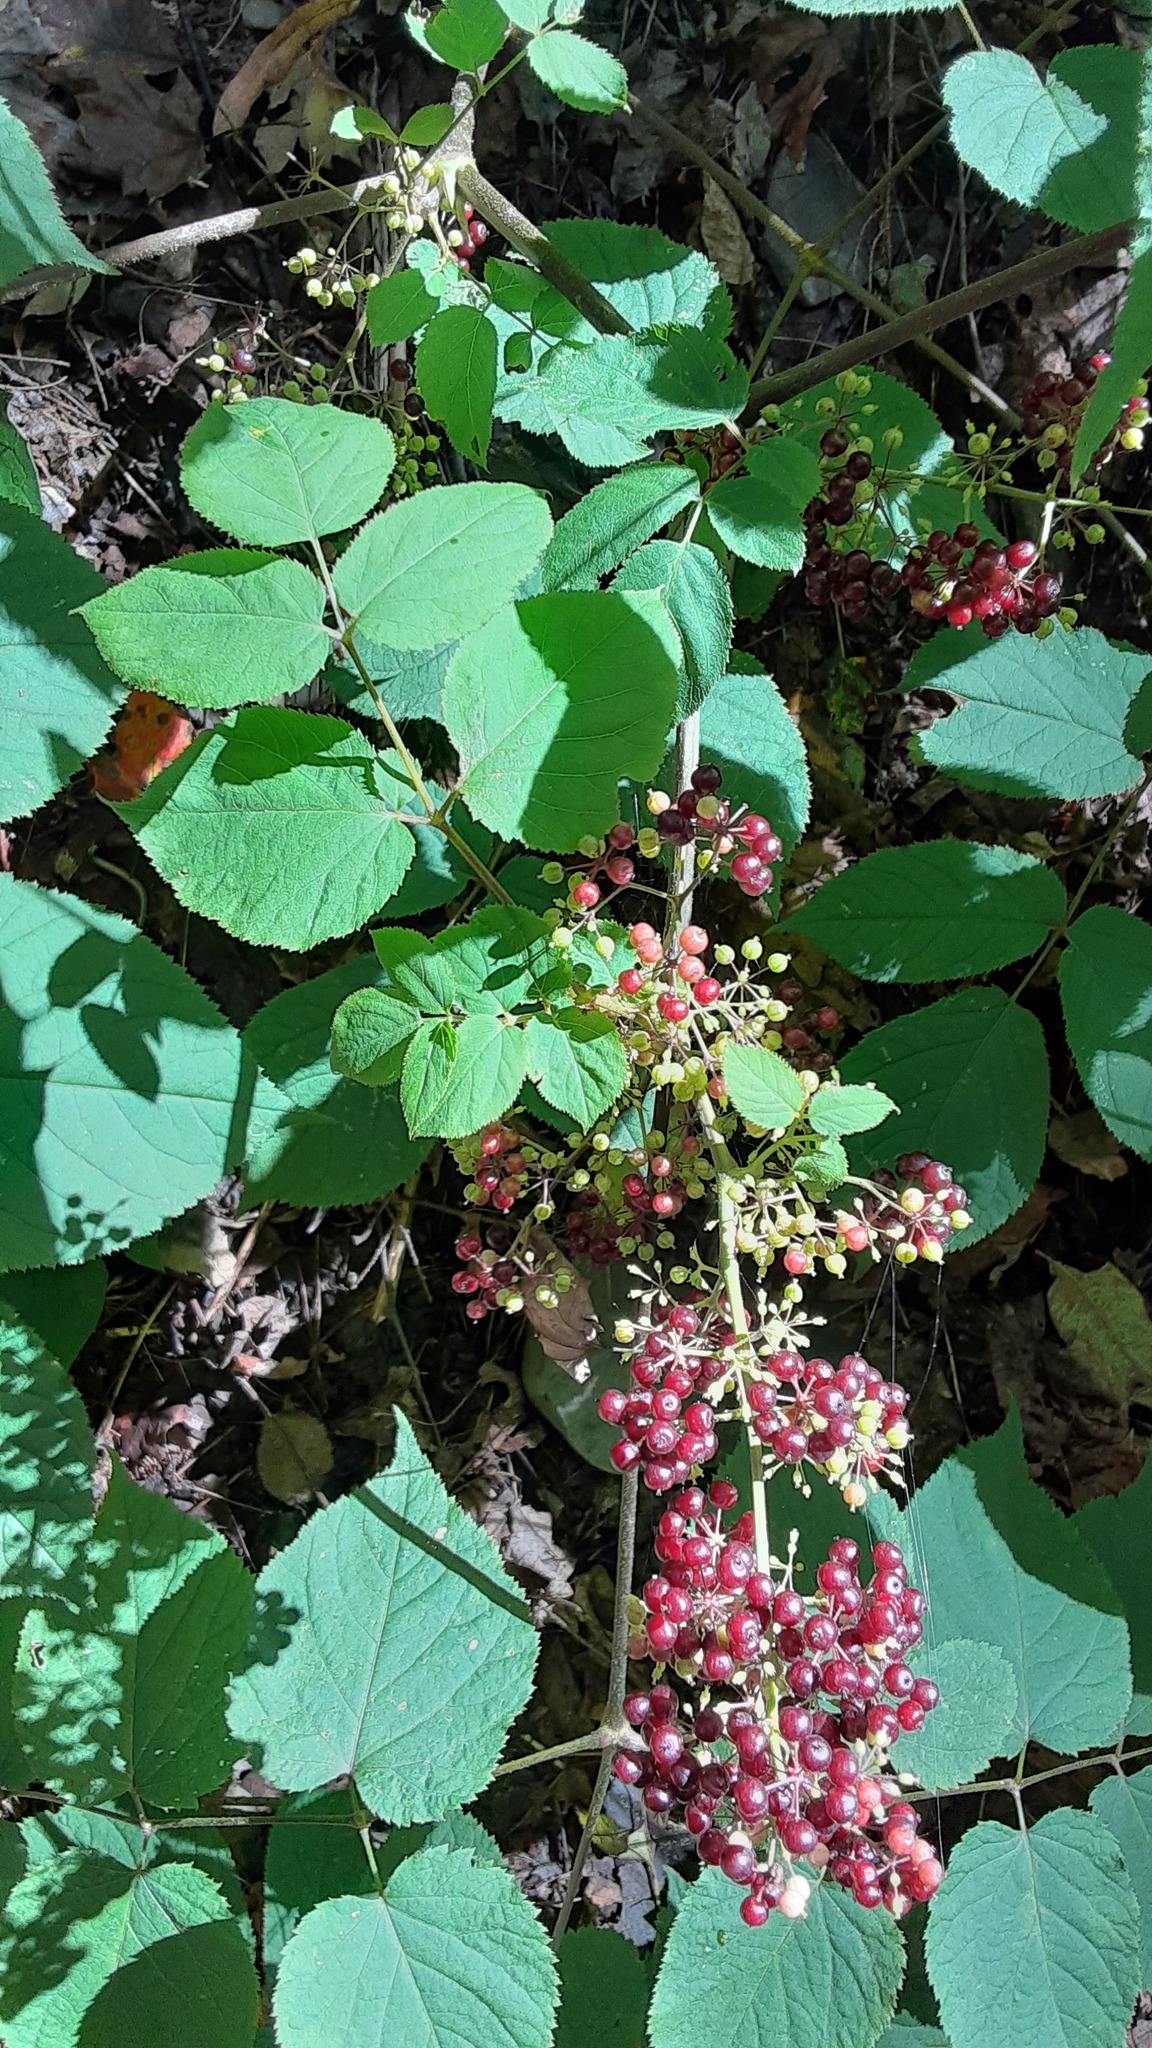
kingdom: Plantae
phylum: Tracheophyta
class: Magnoliopsida
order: Apiales
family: Araliaceae
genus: Aralia
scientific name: Aralia racemosa
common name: American-spikenard
